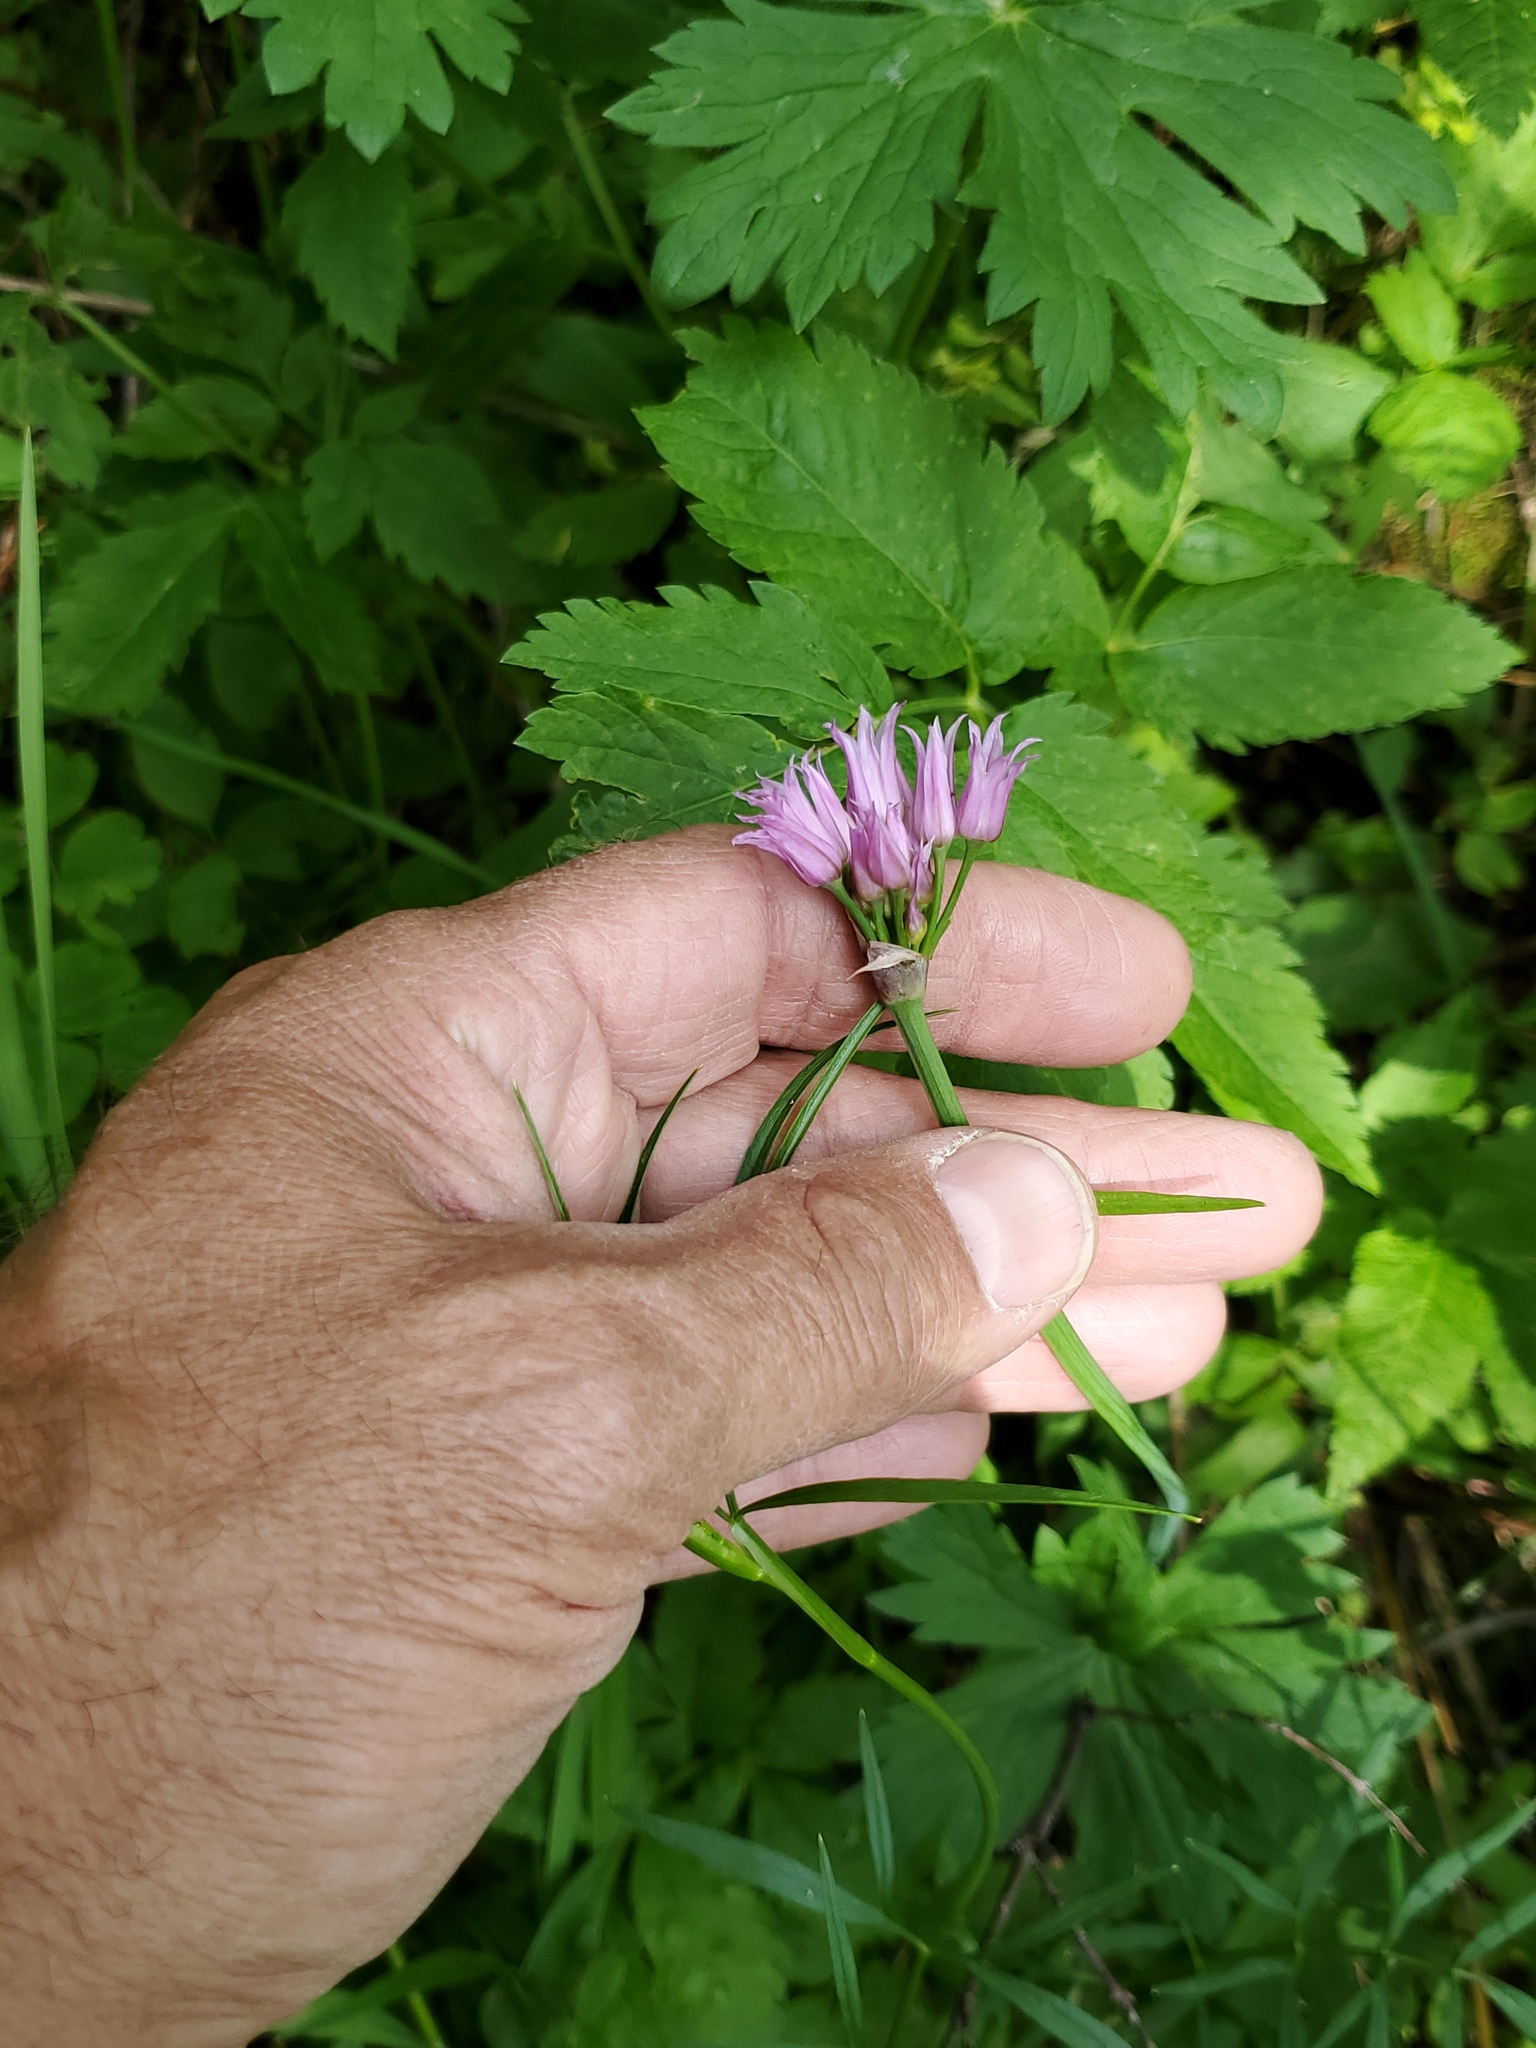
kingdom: Plantae
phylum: Tracheophyta
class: Liliopsida
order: Asparagales
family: Amaryllidaceae
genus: Allium
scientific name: Allium brevistylum
